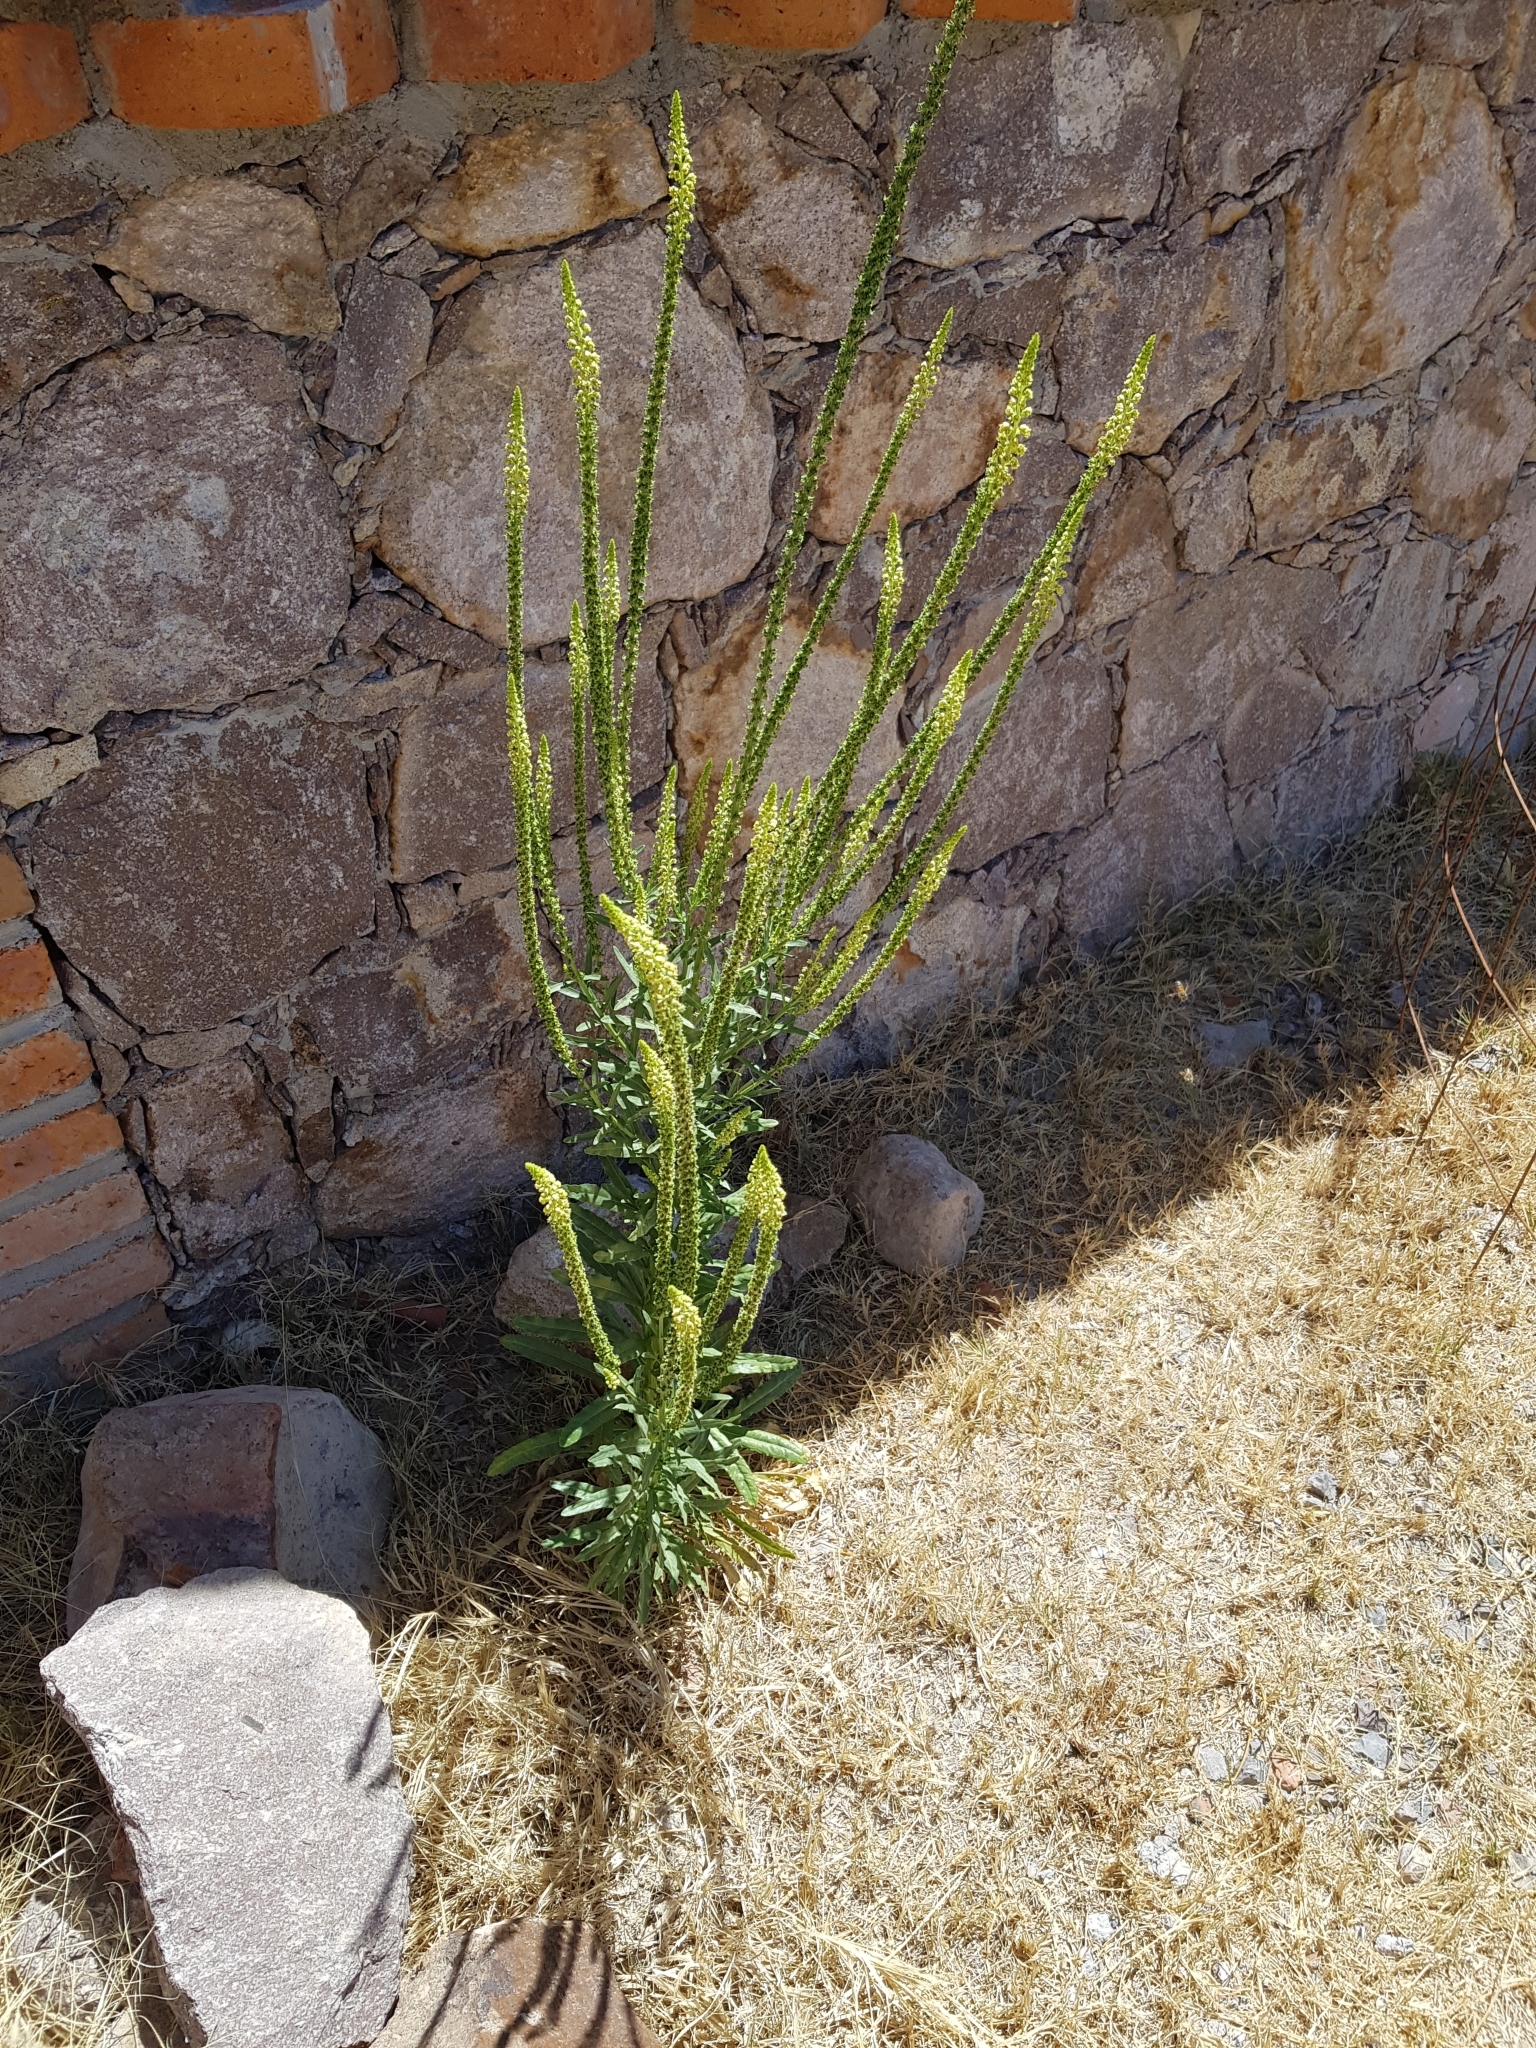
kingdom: Plantae
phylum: Tracheophyta
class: Magnoliopsida
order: Brassicales
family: Resedaceae
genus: Reseda
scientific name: Reseda luteola
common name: Weld
